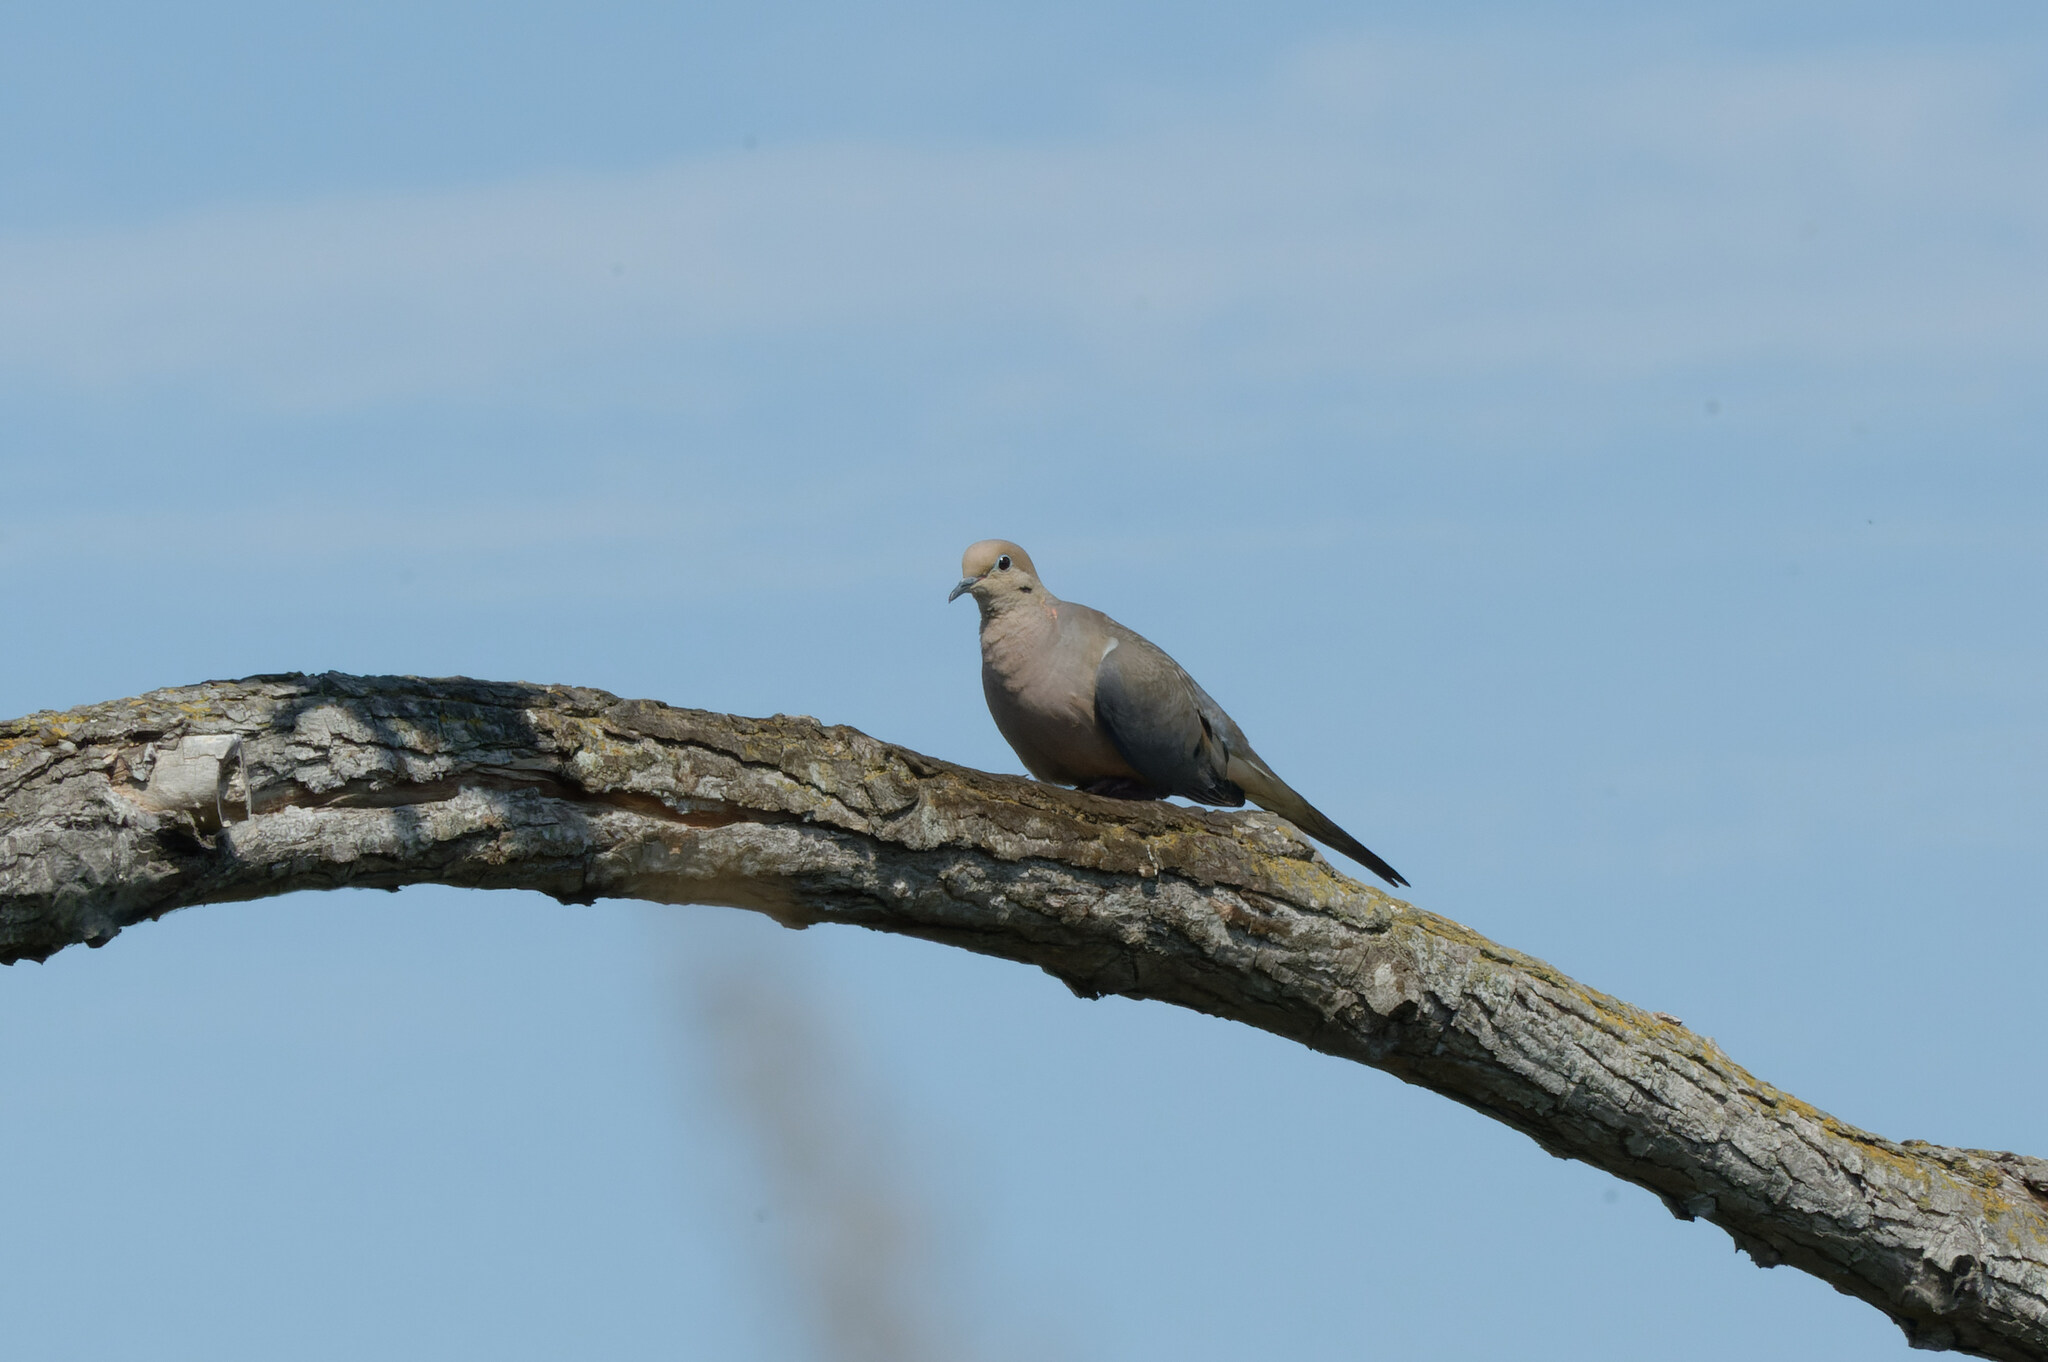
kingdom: Animalia
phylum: Chordata
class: Aves
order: Columbiformes
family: Columbidae
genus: Zenaida
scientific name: Zenaida macroura
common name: Mourning dove
